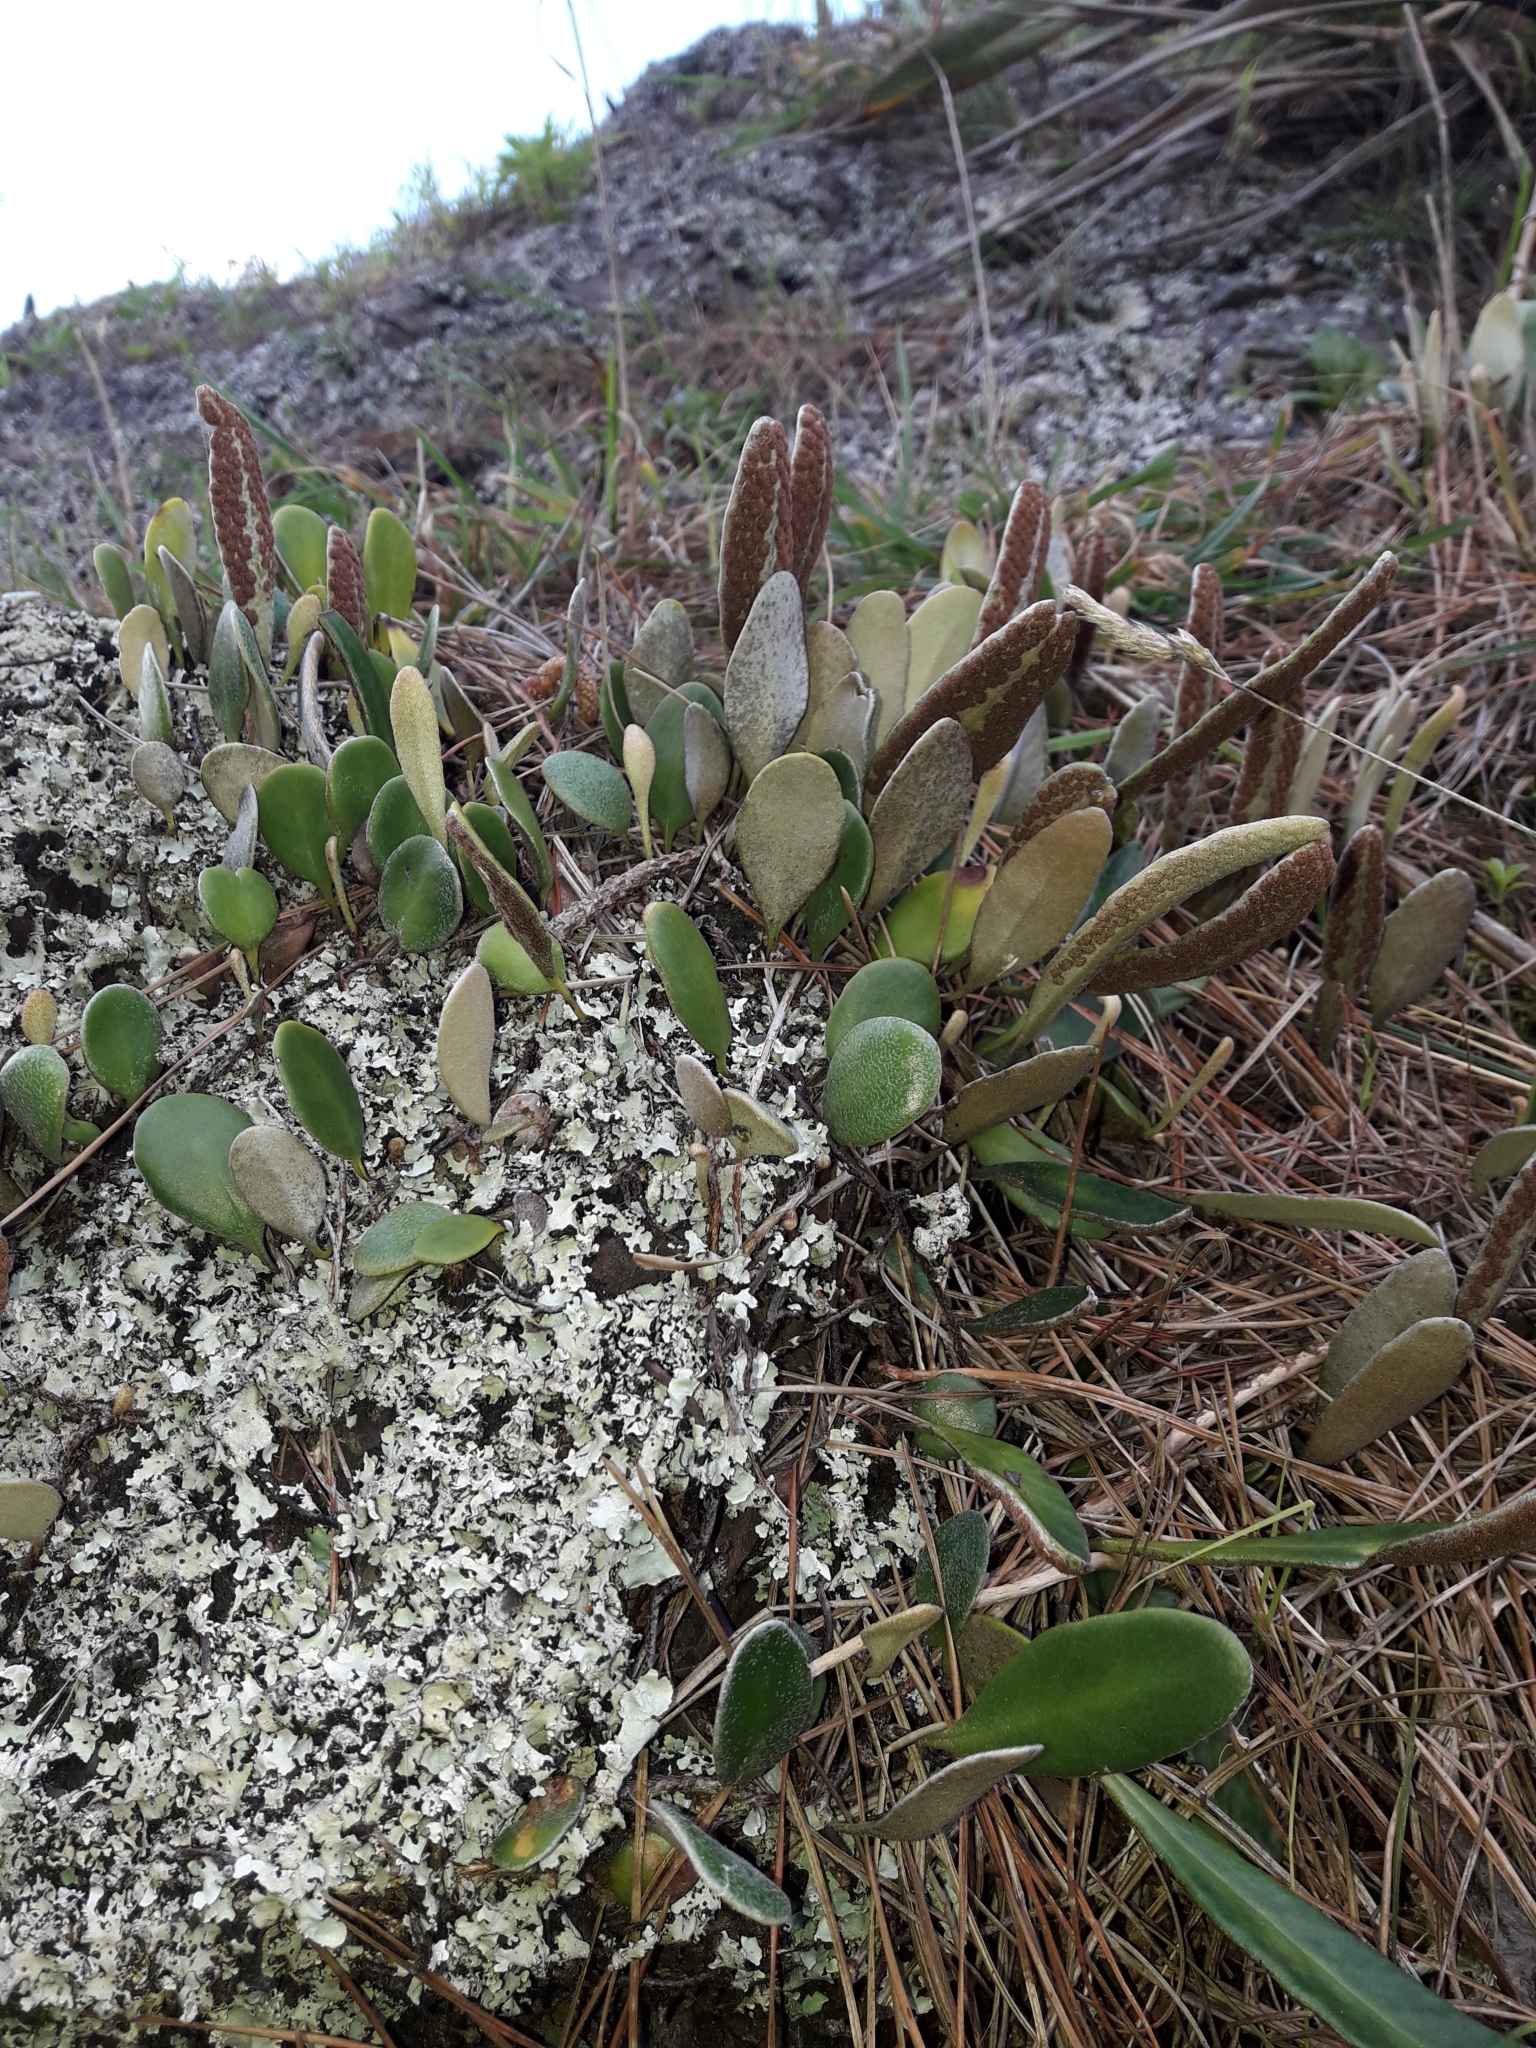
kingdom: Plantae
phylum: Tracheophyta
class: Polypodiopsida
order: Polypodiales
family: Polypodiaceae
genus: Pyrrosia
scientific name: Pyrrosia eleagnifolia
